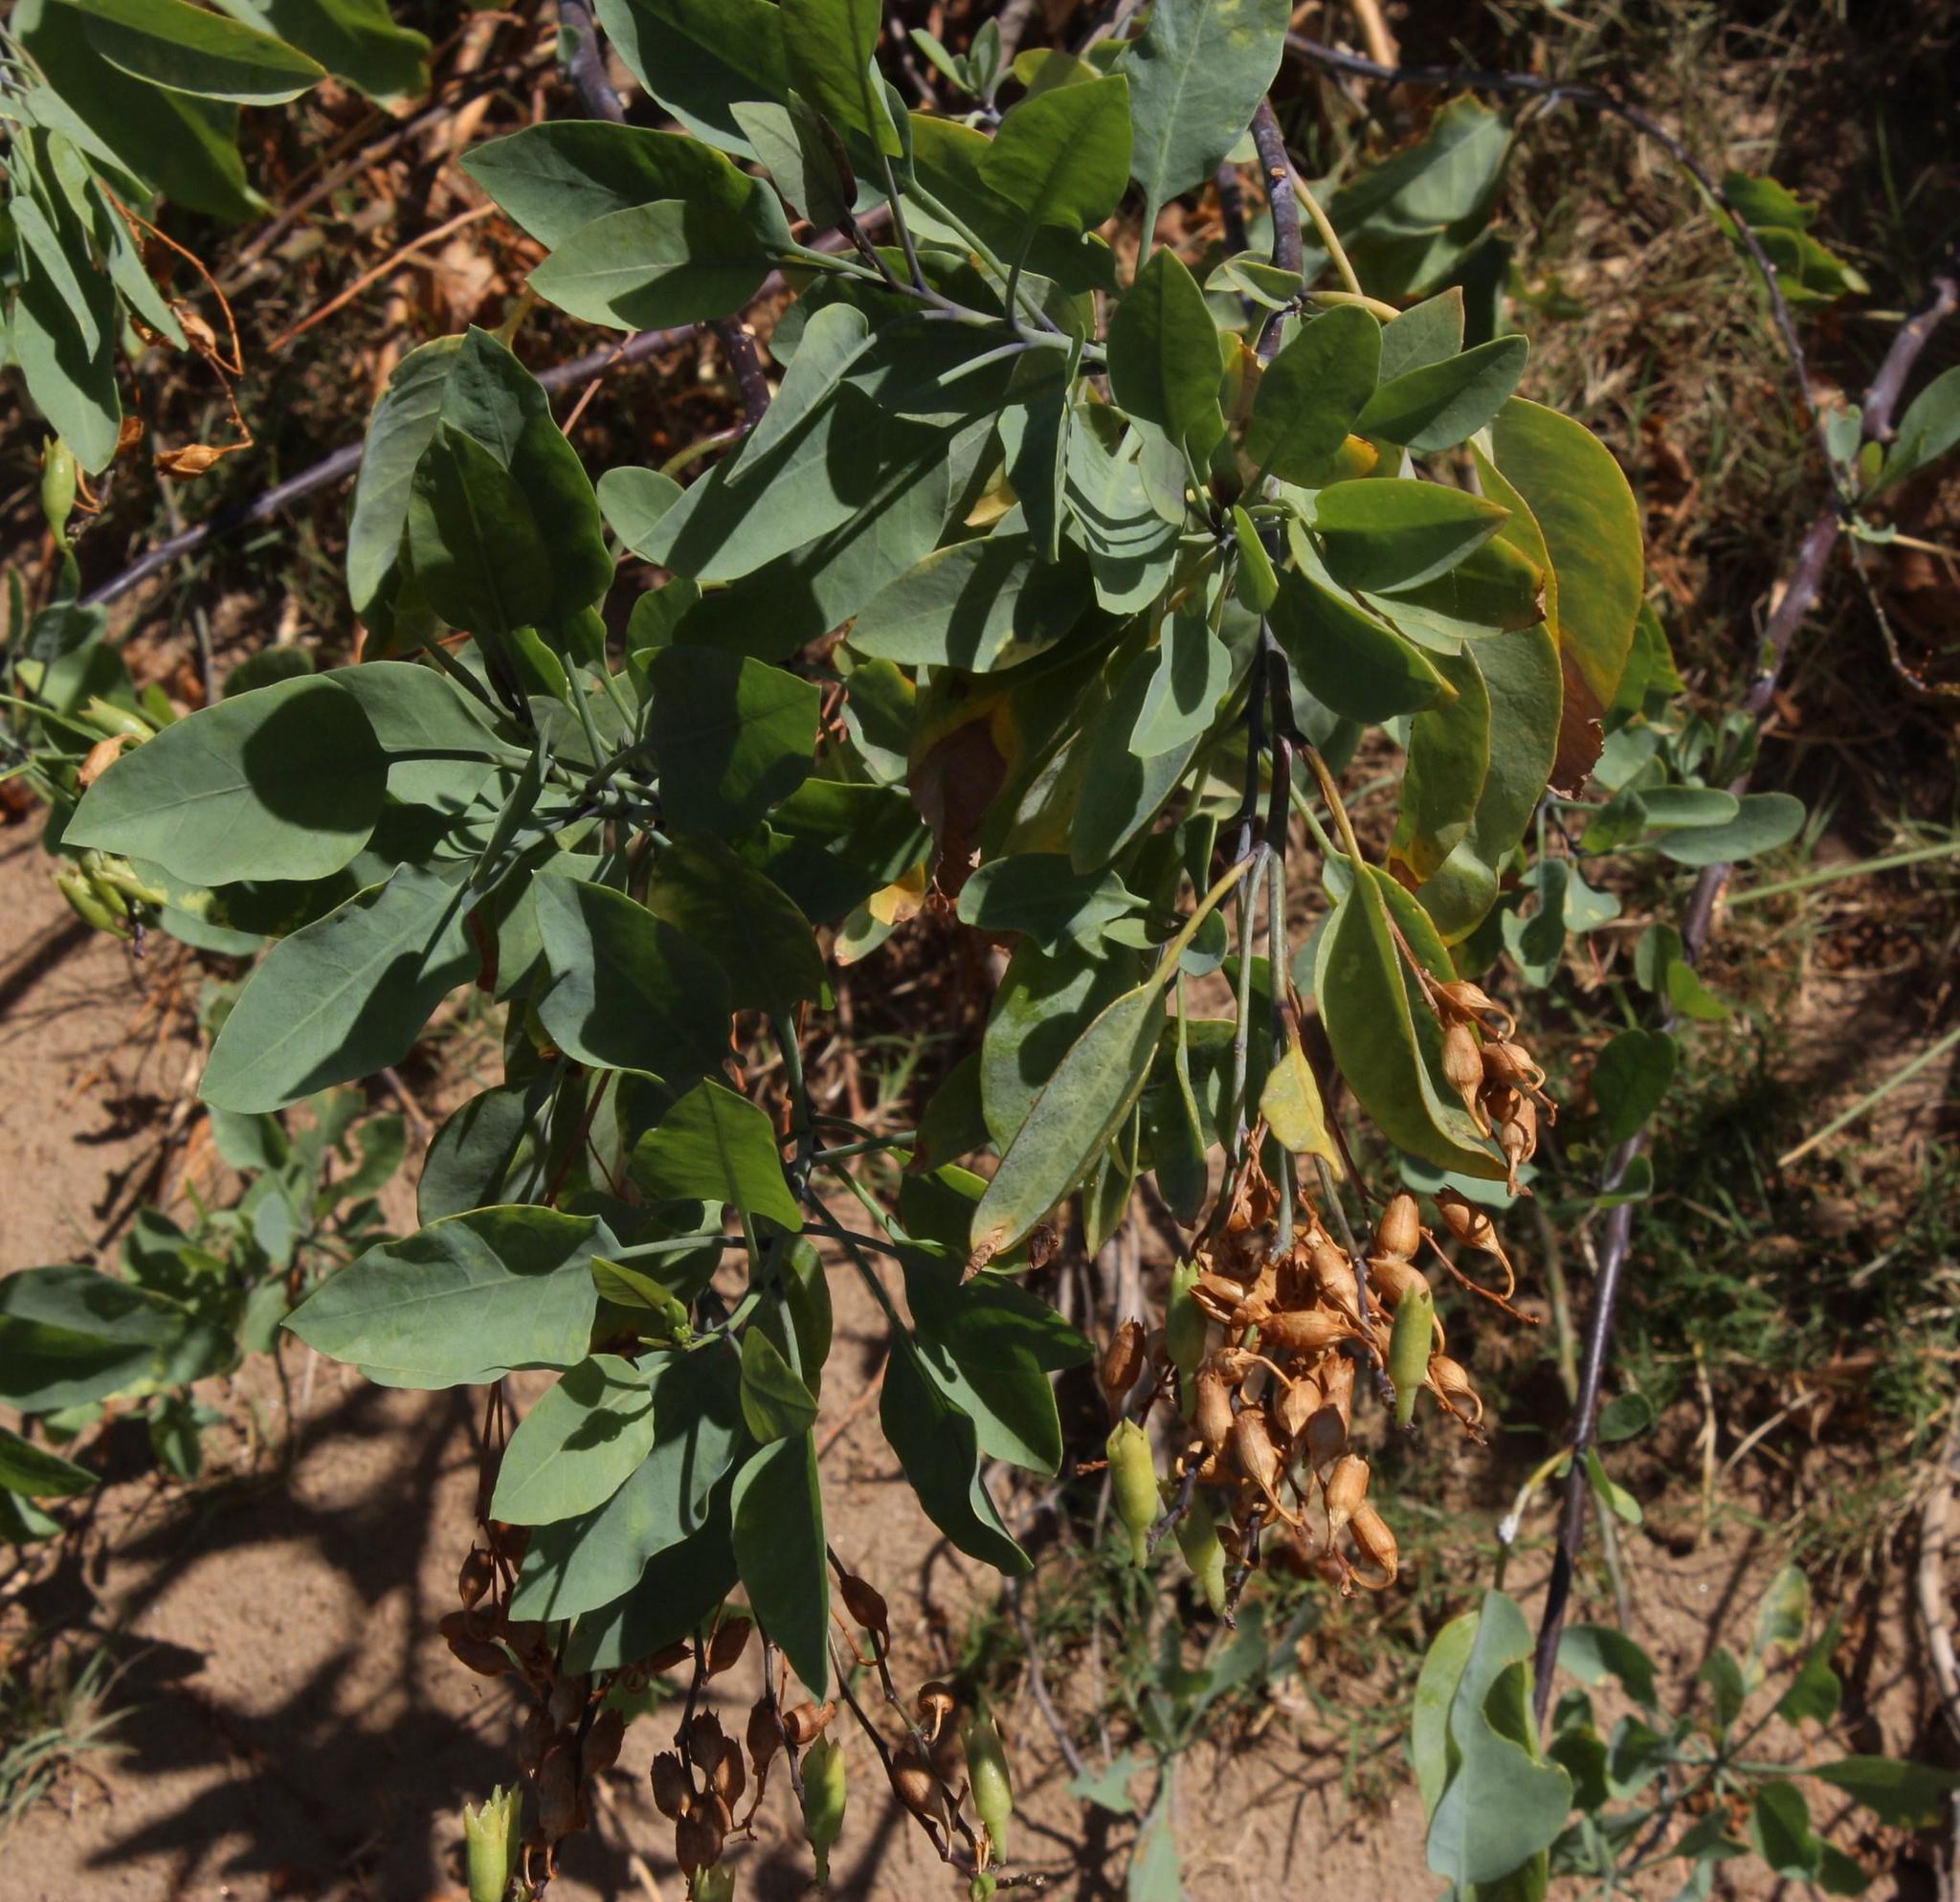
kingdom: Plantae
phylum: Tracheophyta
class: Magnoliopsida
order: Solanales
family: Solanaceae
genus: Nicotiana
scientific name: Nicotiana glauca
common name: Tree tobacco
